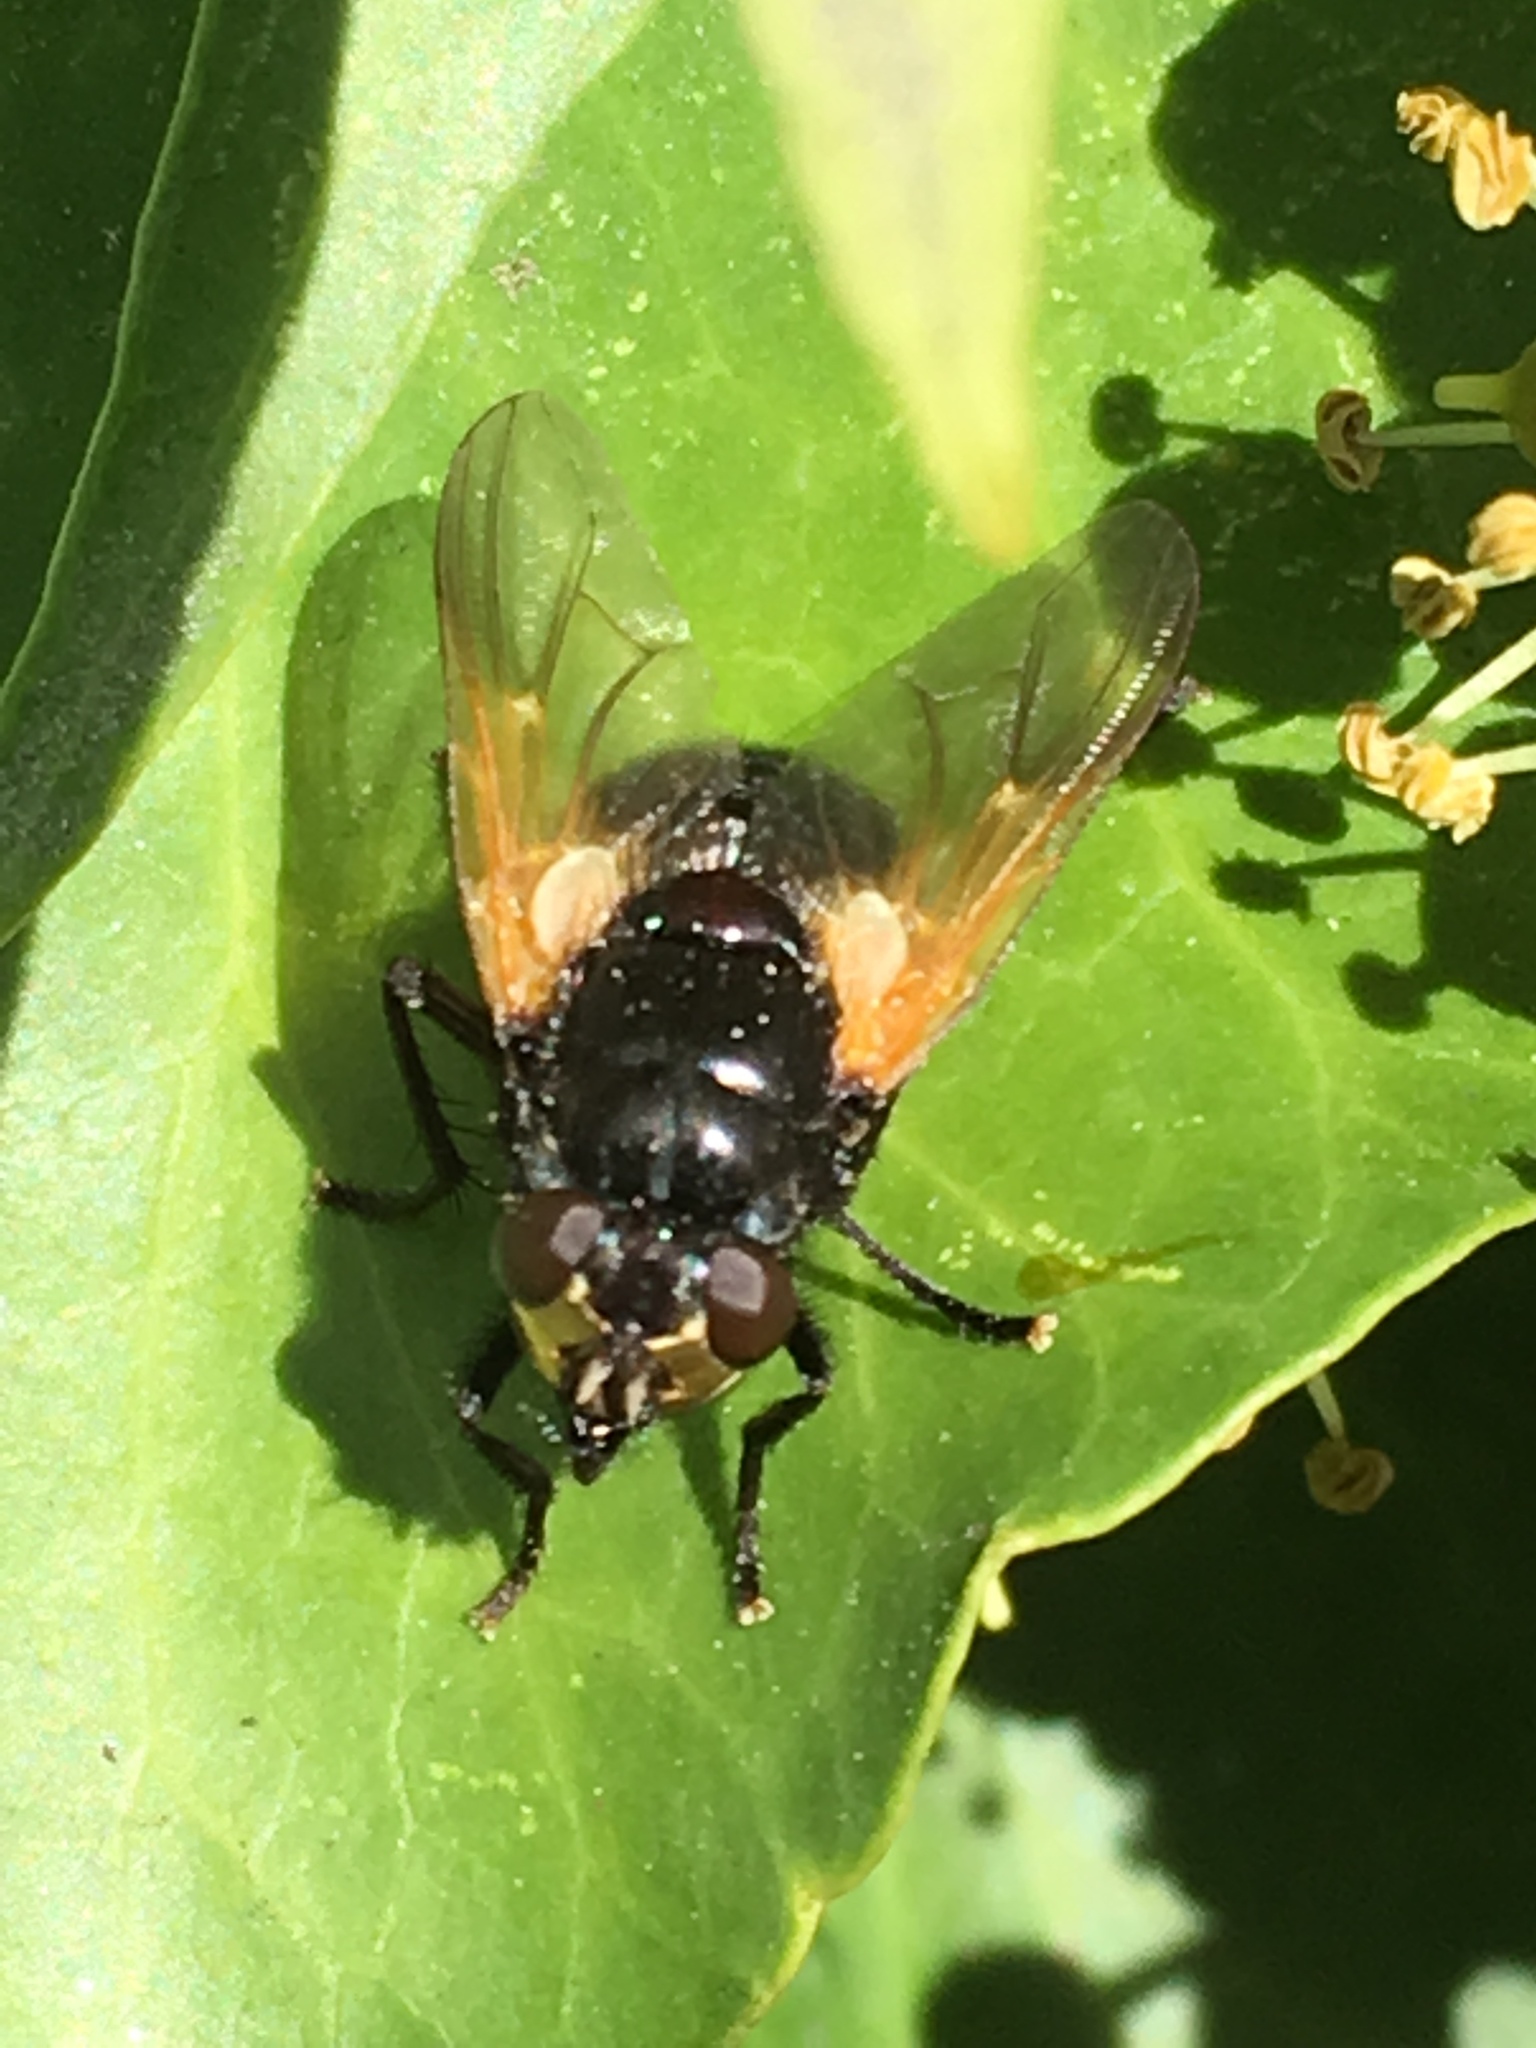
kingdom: Animalia
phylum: Arthropoda
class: Insecta
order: Diptera
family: Muscidae
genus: Mesembrina
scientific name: Mesembrina meridiana
